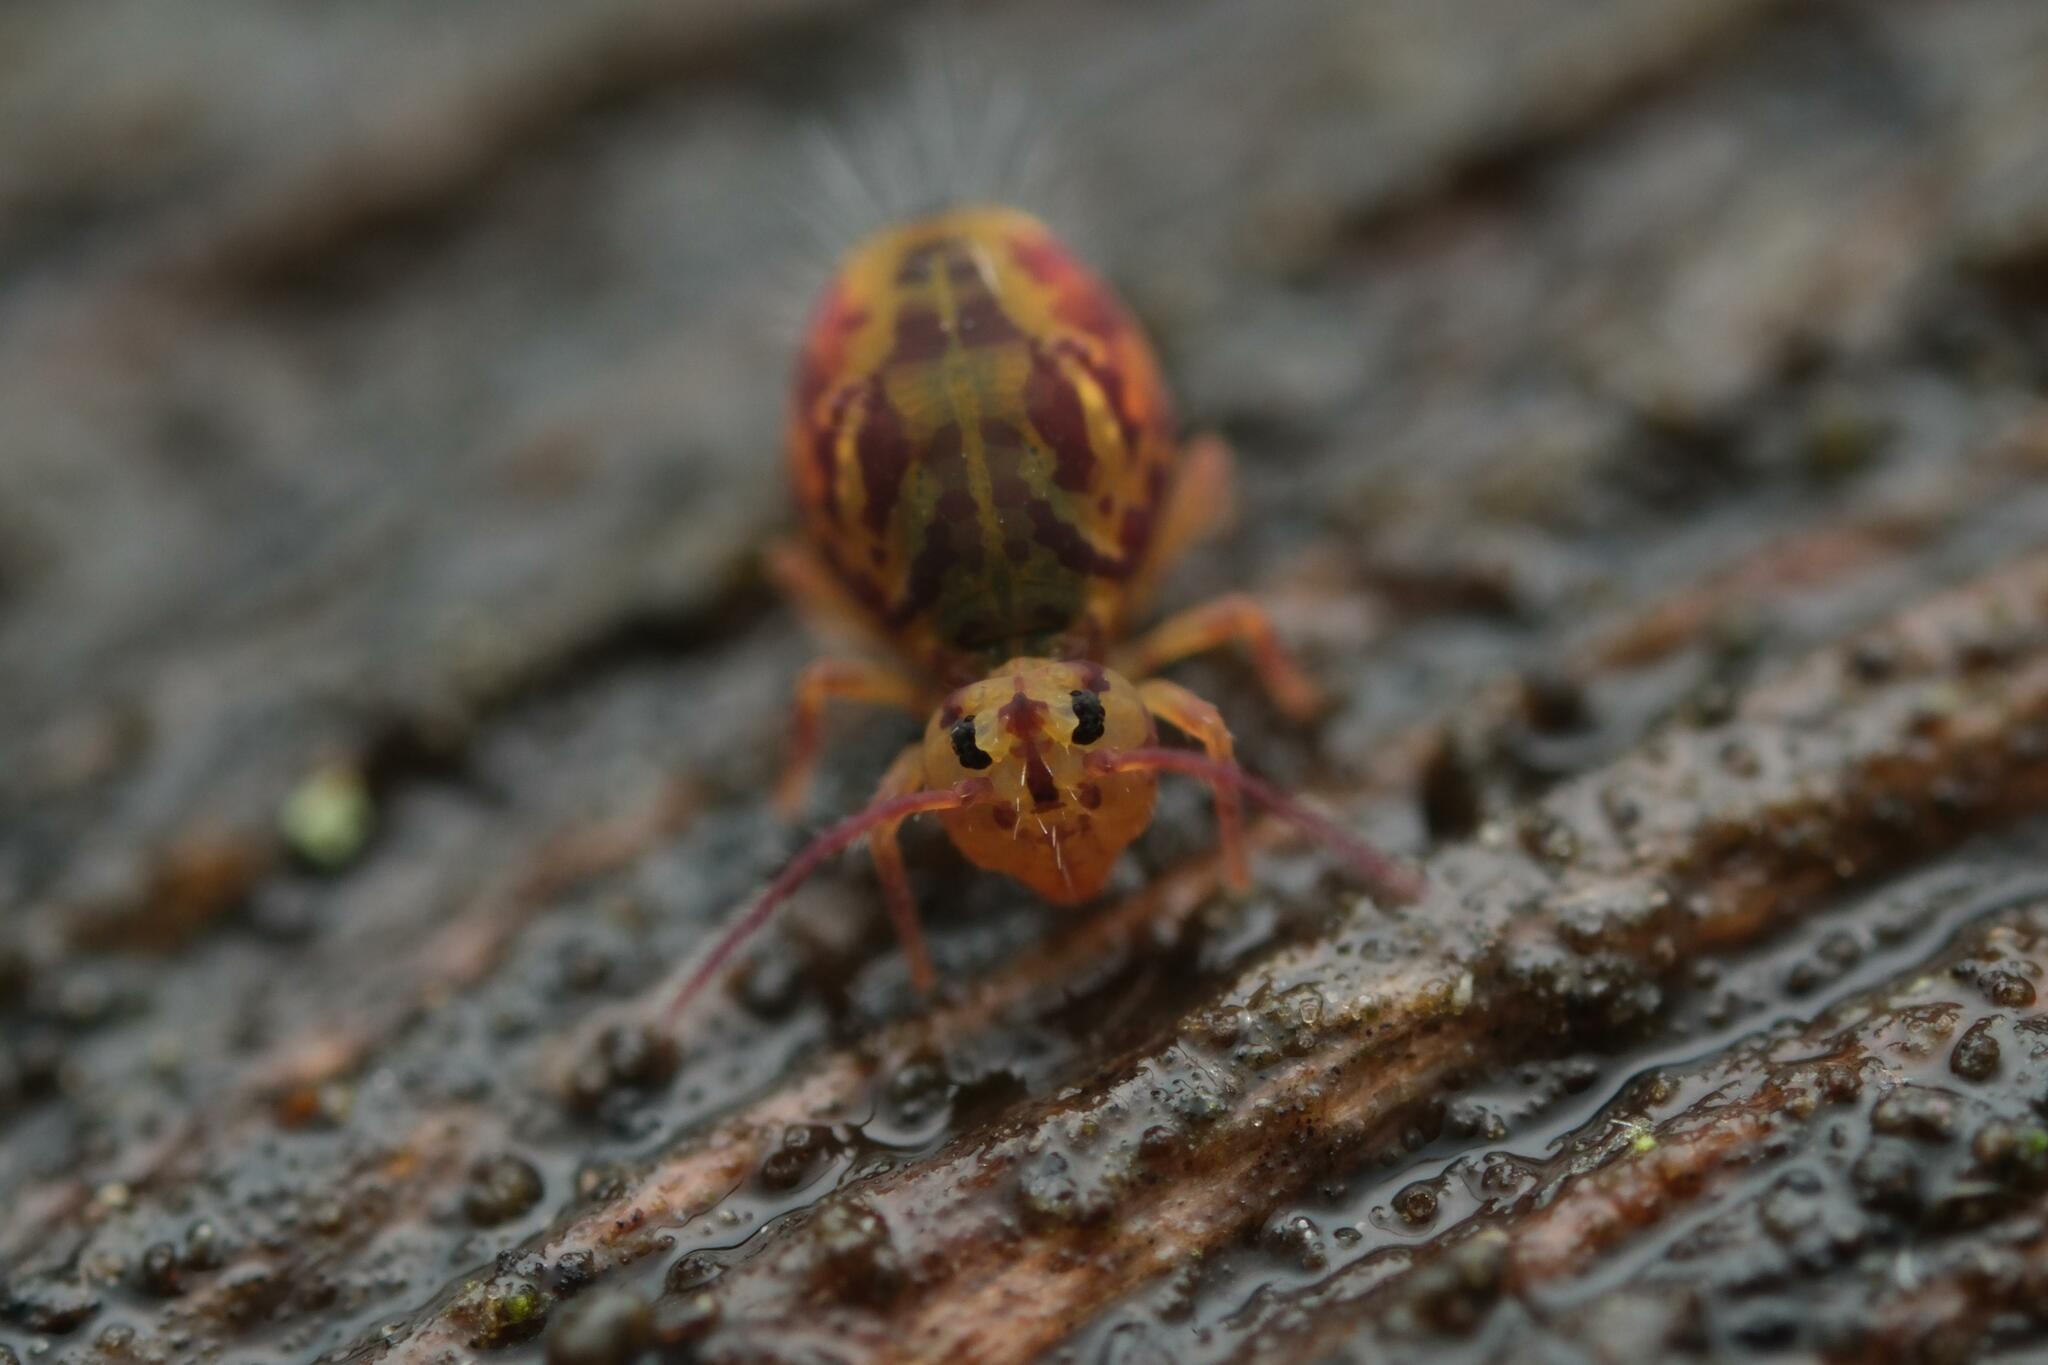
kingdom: Animalia
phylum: Arthropoda
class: Collembola
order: Symphypleona
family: Dicyrtomidae
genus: Dicyrtomina
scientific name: Dicyrtomina ornata
